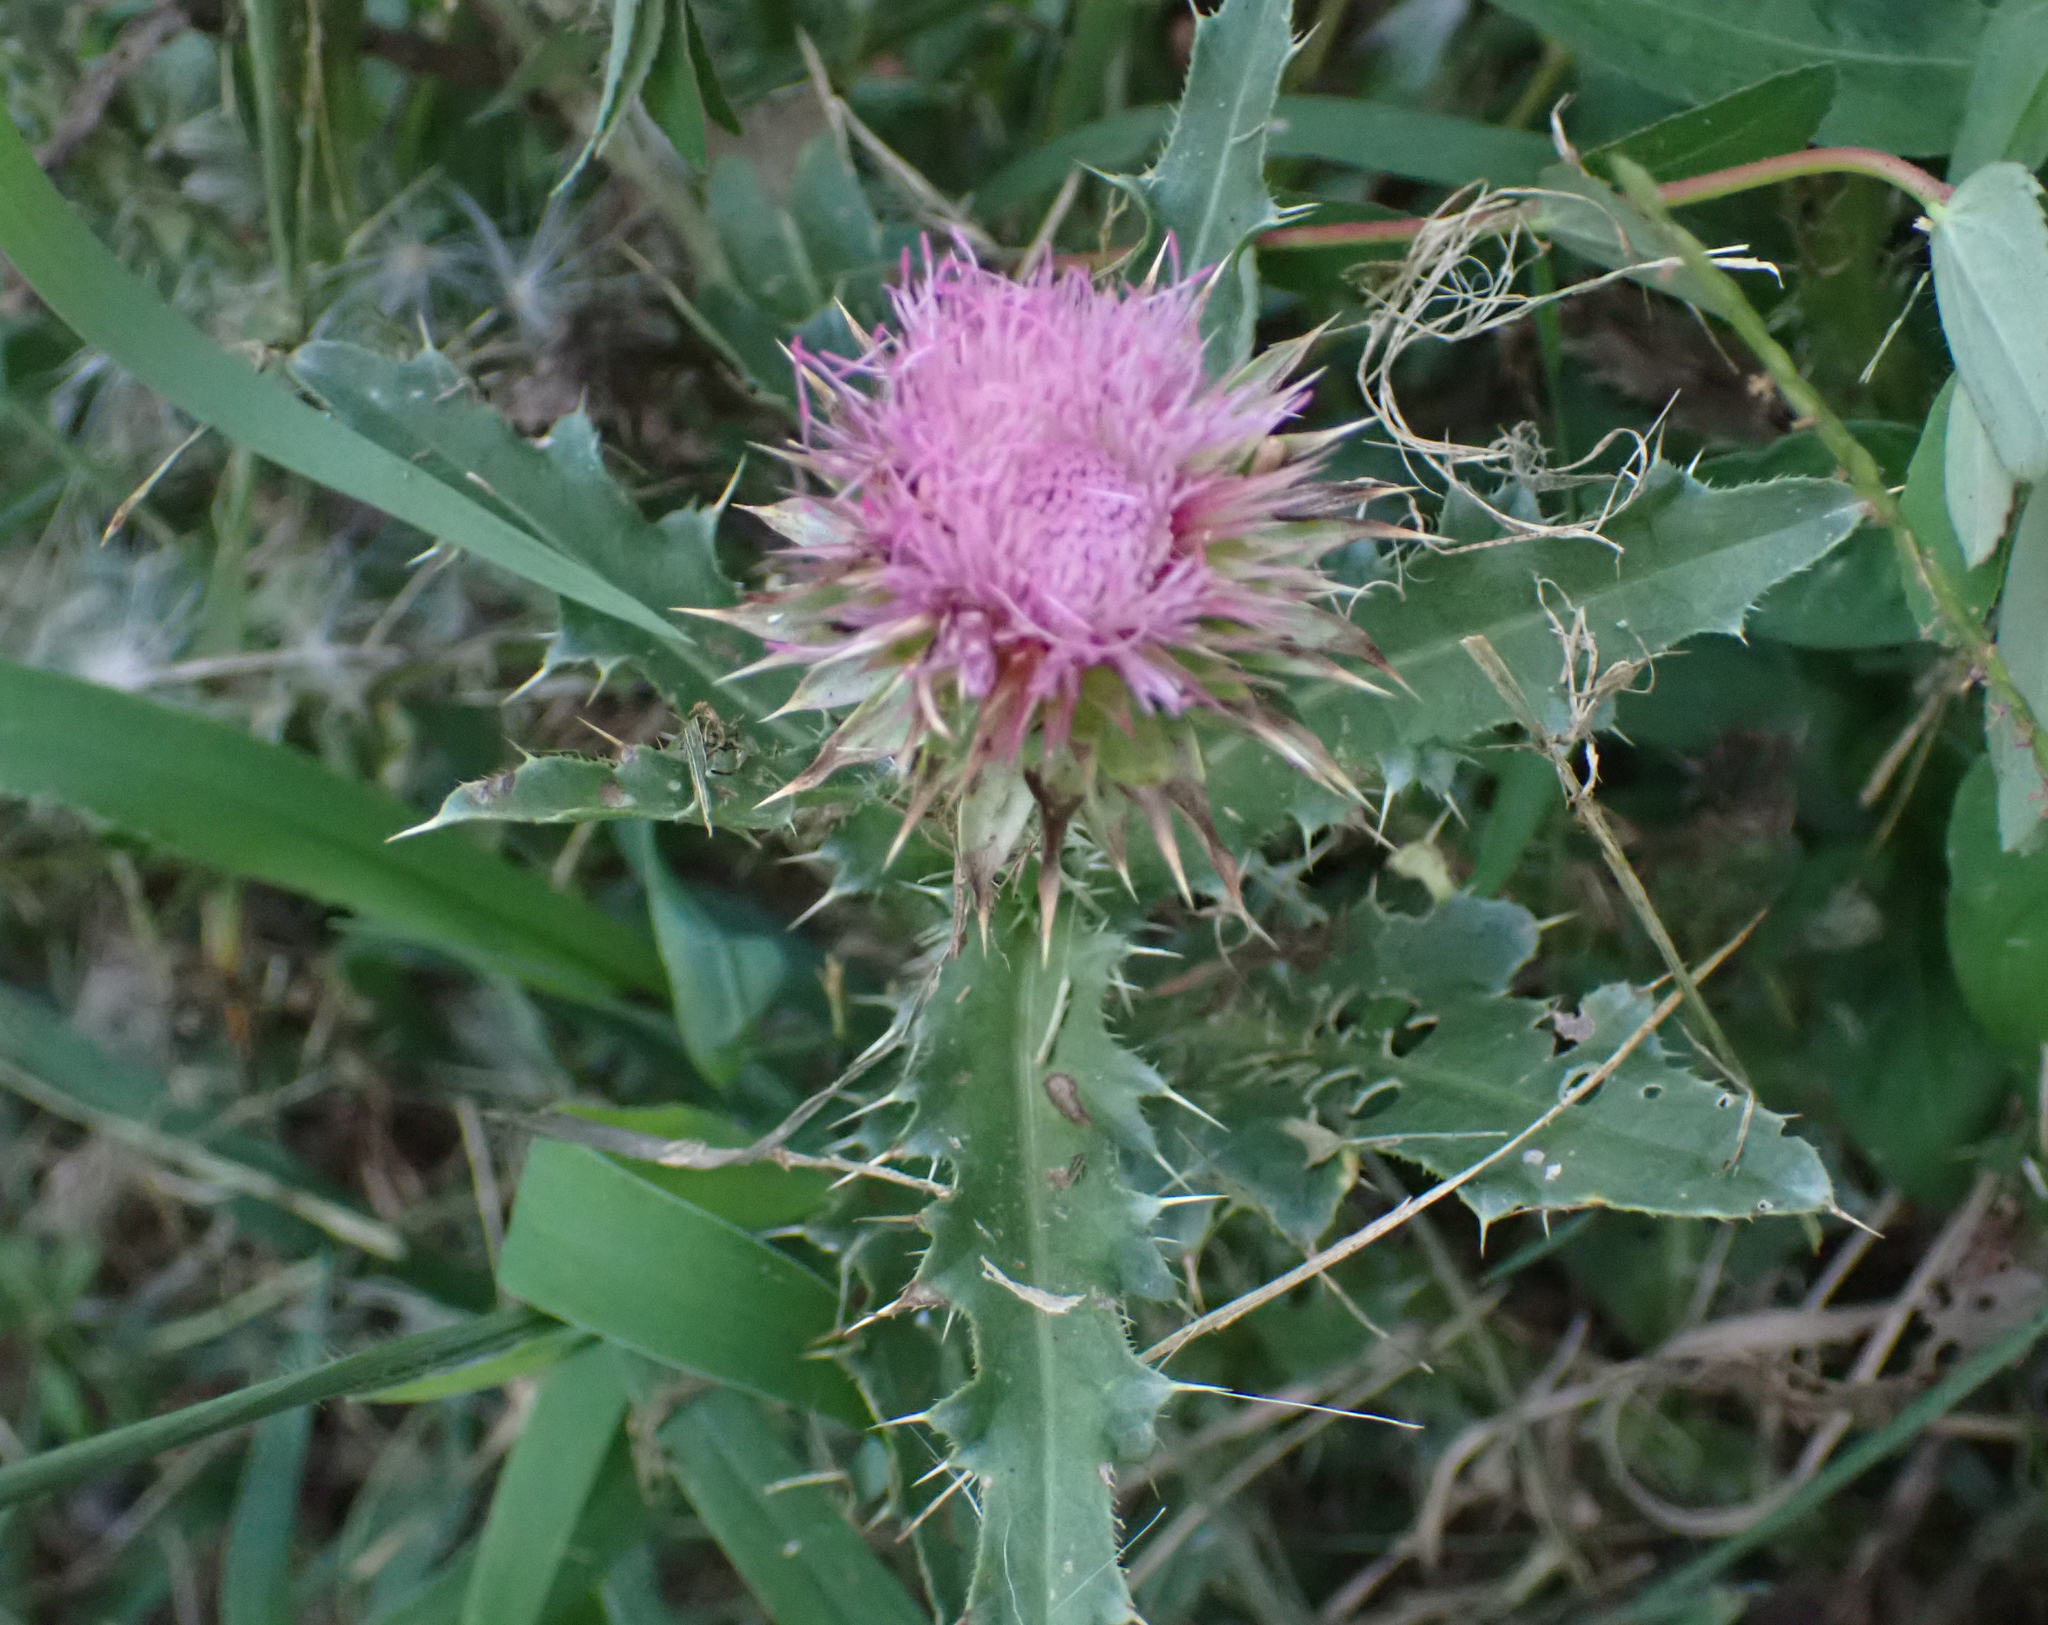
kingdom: Plantae
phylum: Tracheophyta
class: Magnoliopsida
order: Asterales
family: Asteraceae
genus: Carduus
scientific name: Carduus nutans
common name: Musk thistle
